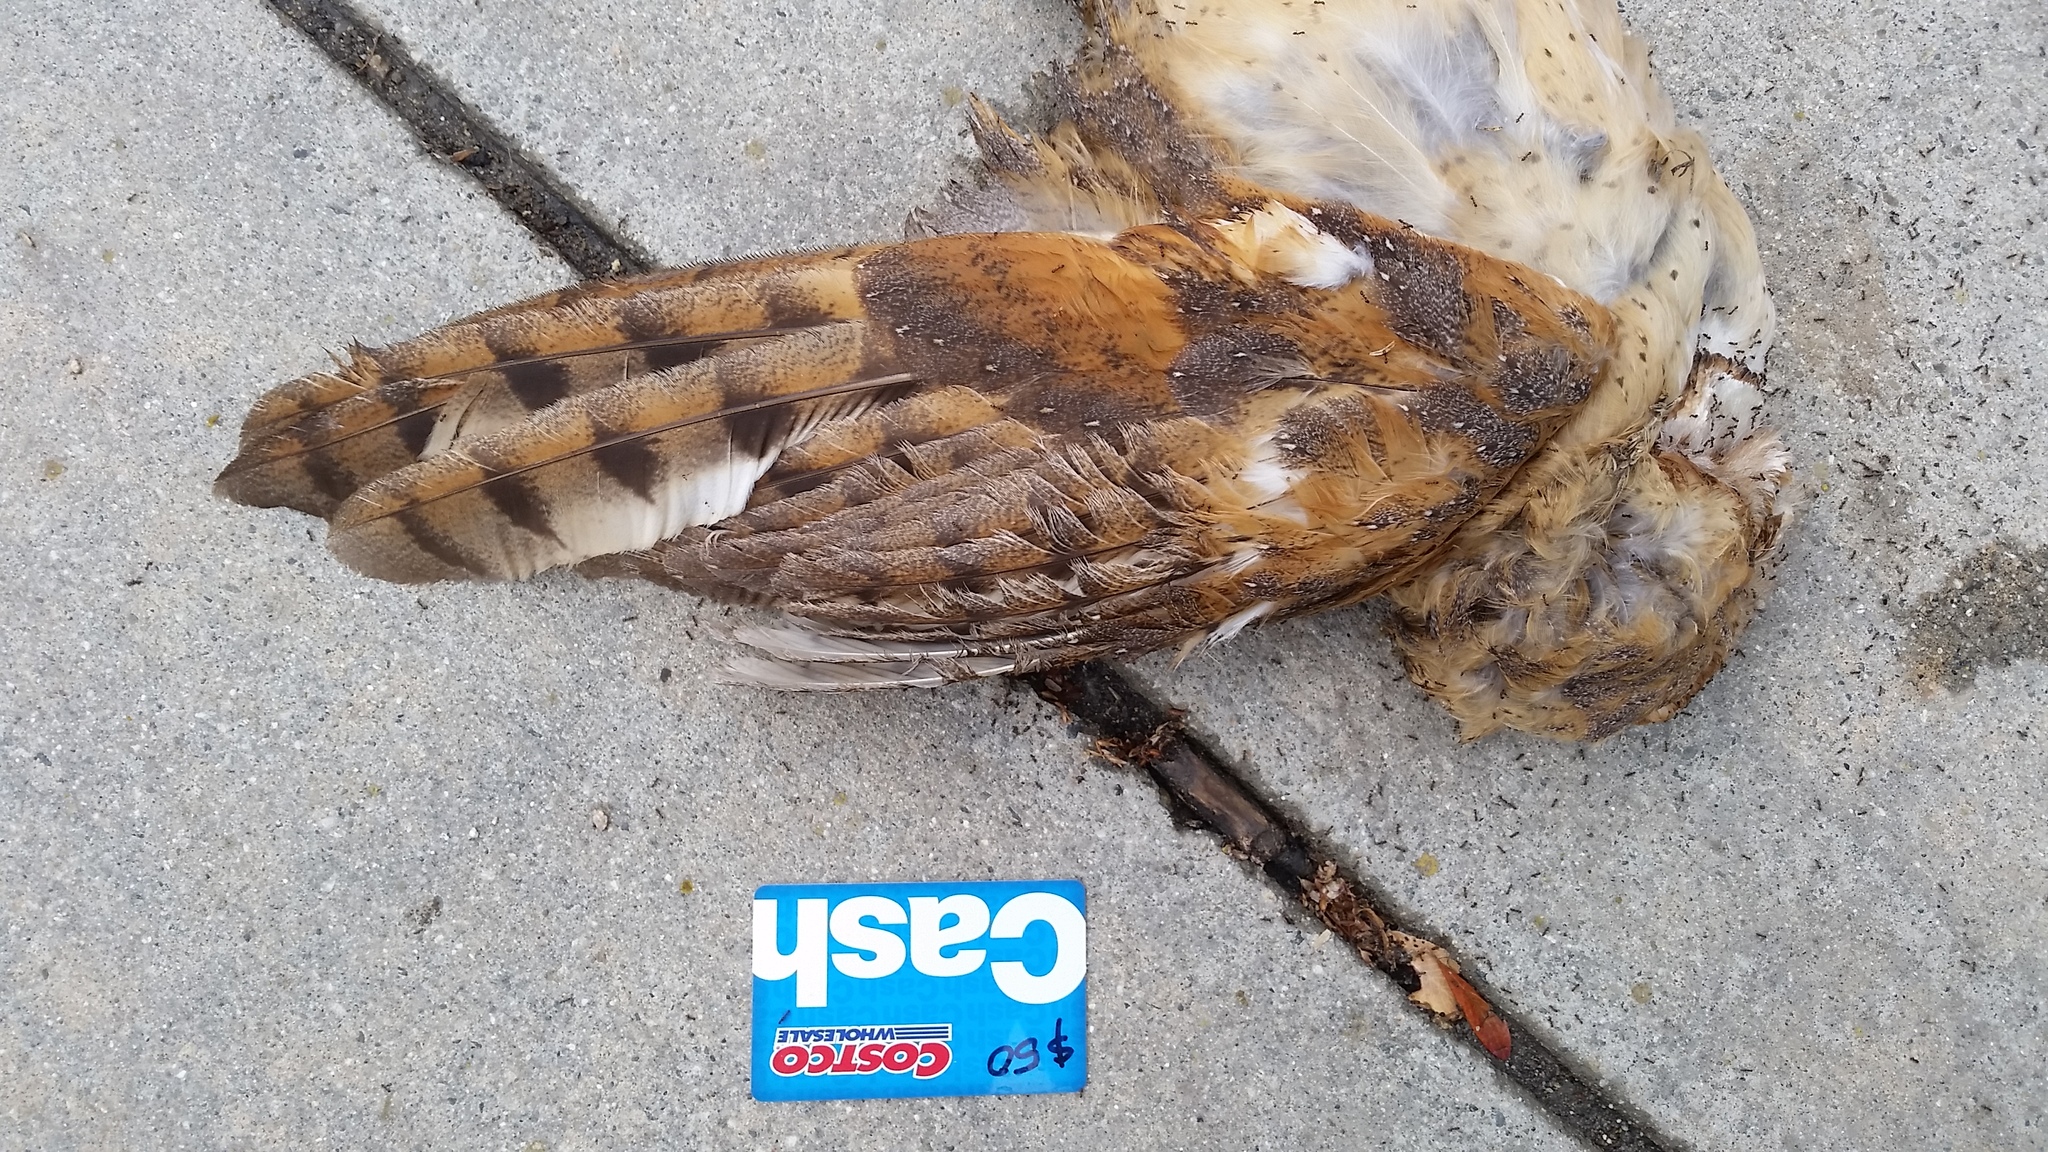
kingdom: Animalia
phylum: Chordata
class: Aves
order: Strigiformes
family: Tytonidae
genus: Tyto
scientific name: Tyto alba
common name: Barn owl
